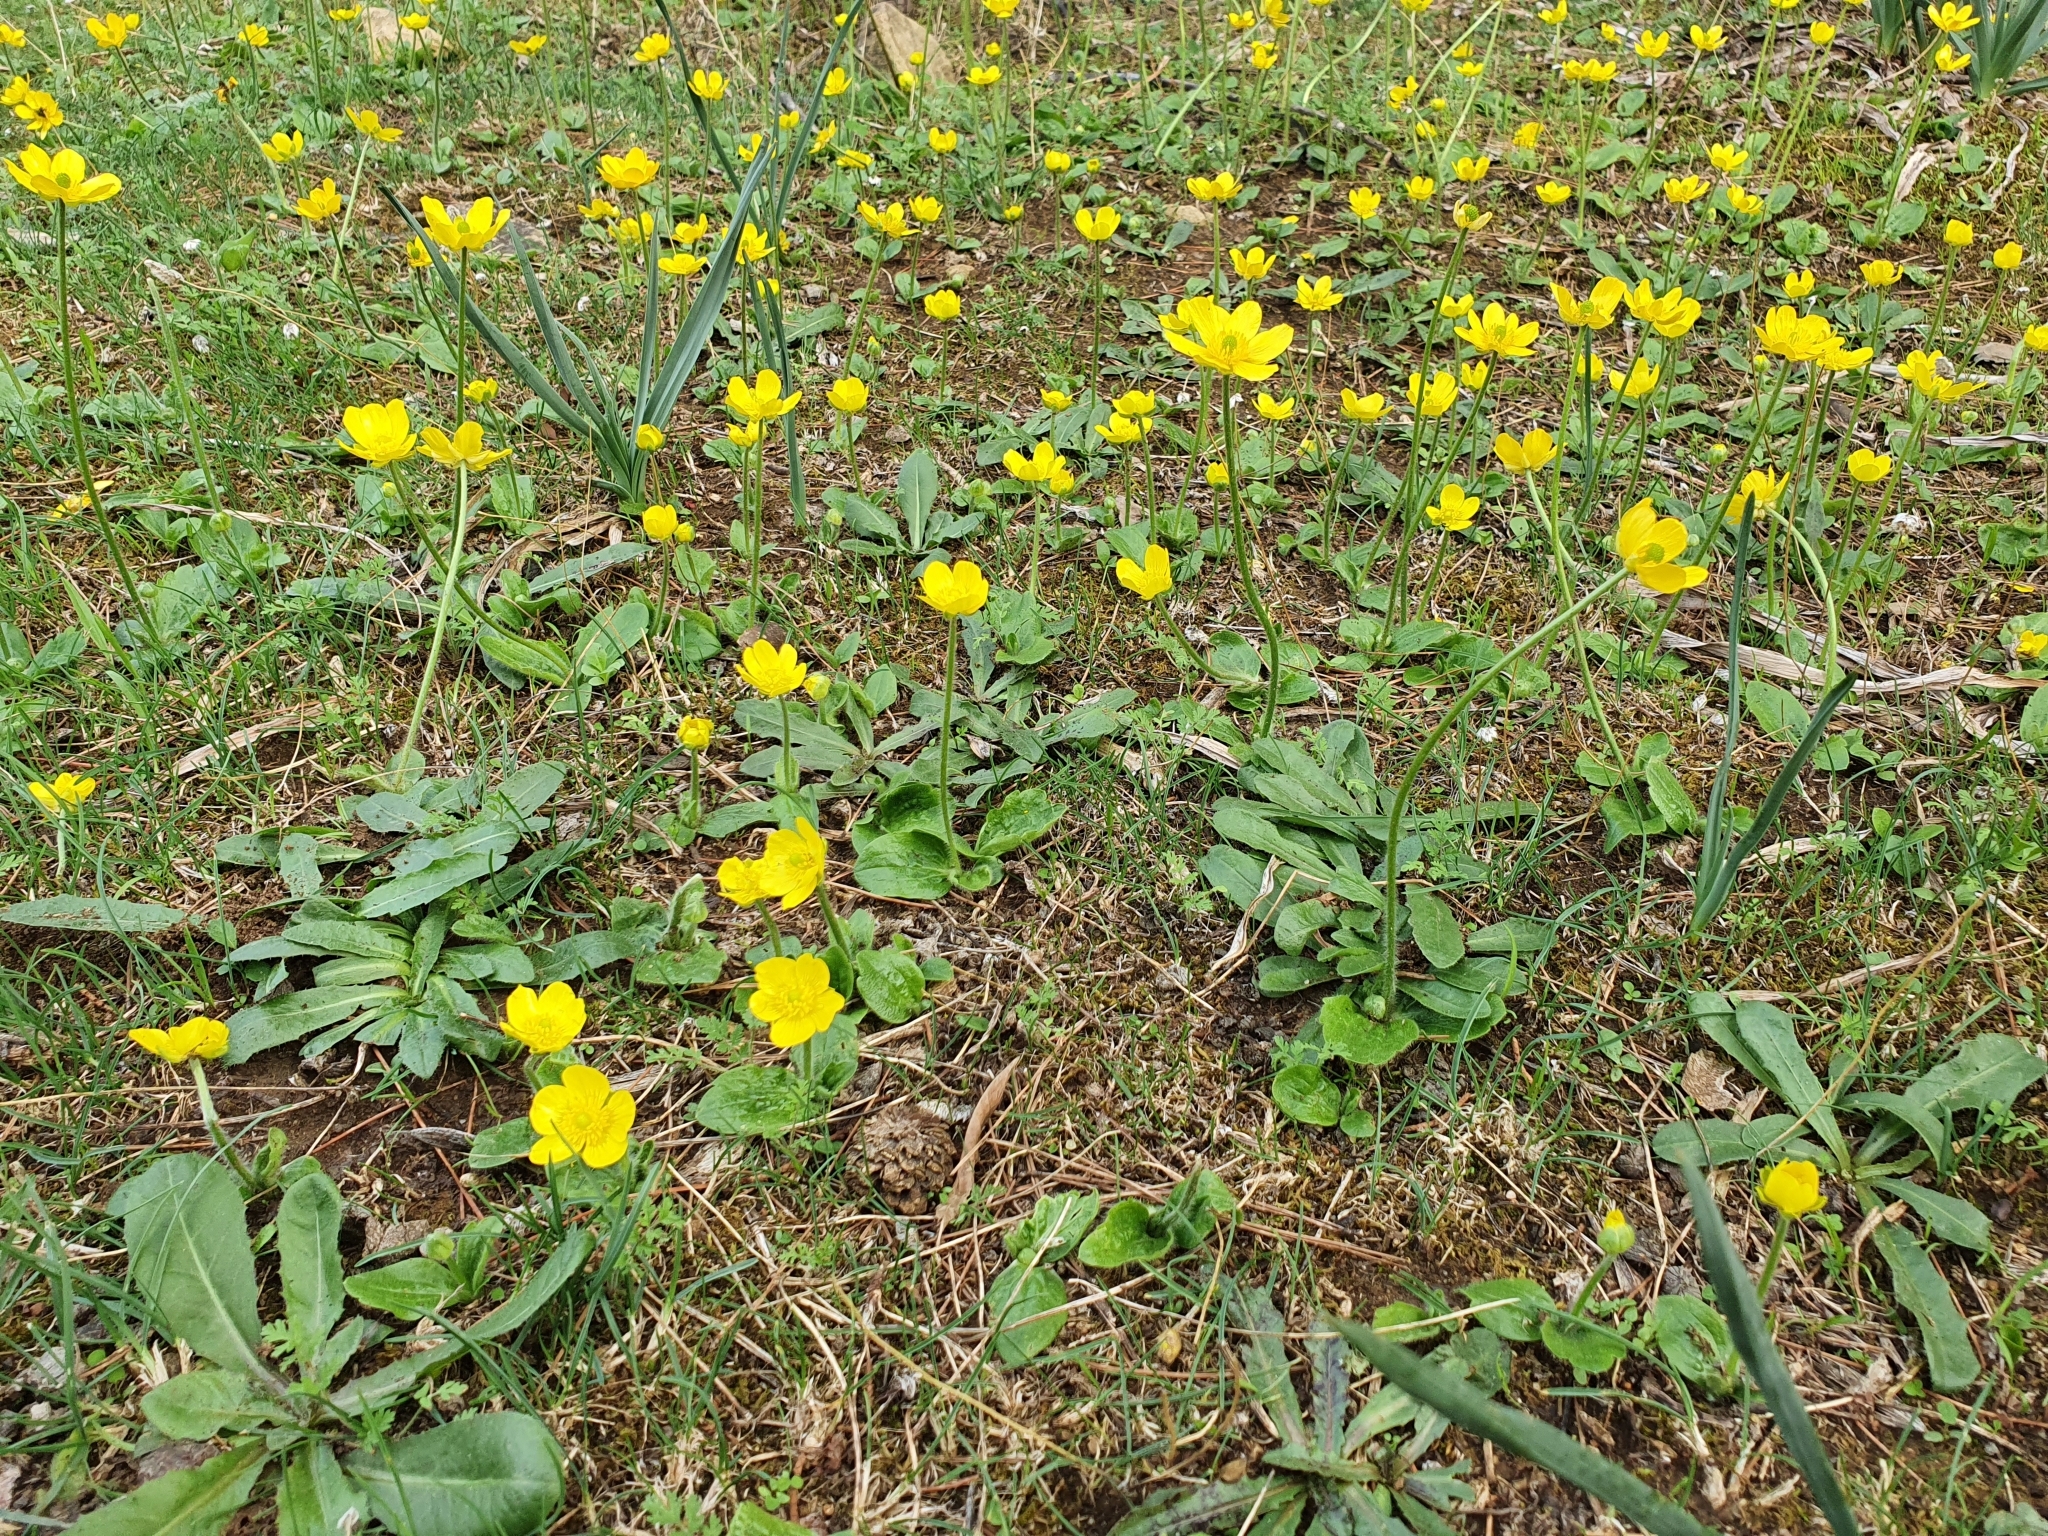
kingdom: Plantae
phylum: Tracheophyta
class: Magnoliopsida
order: Ranunculales
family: Ranunculaceae
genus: Ranunculus
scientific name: Ranunculus bullatus
